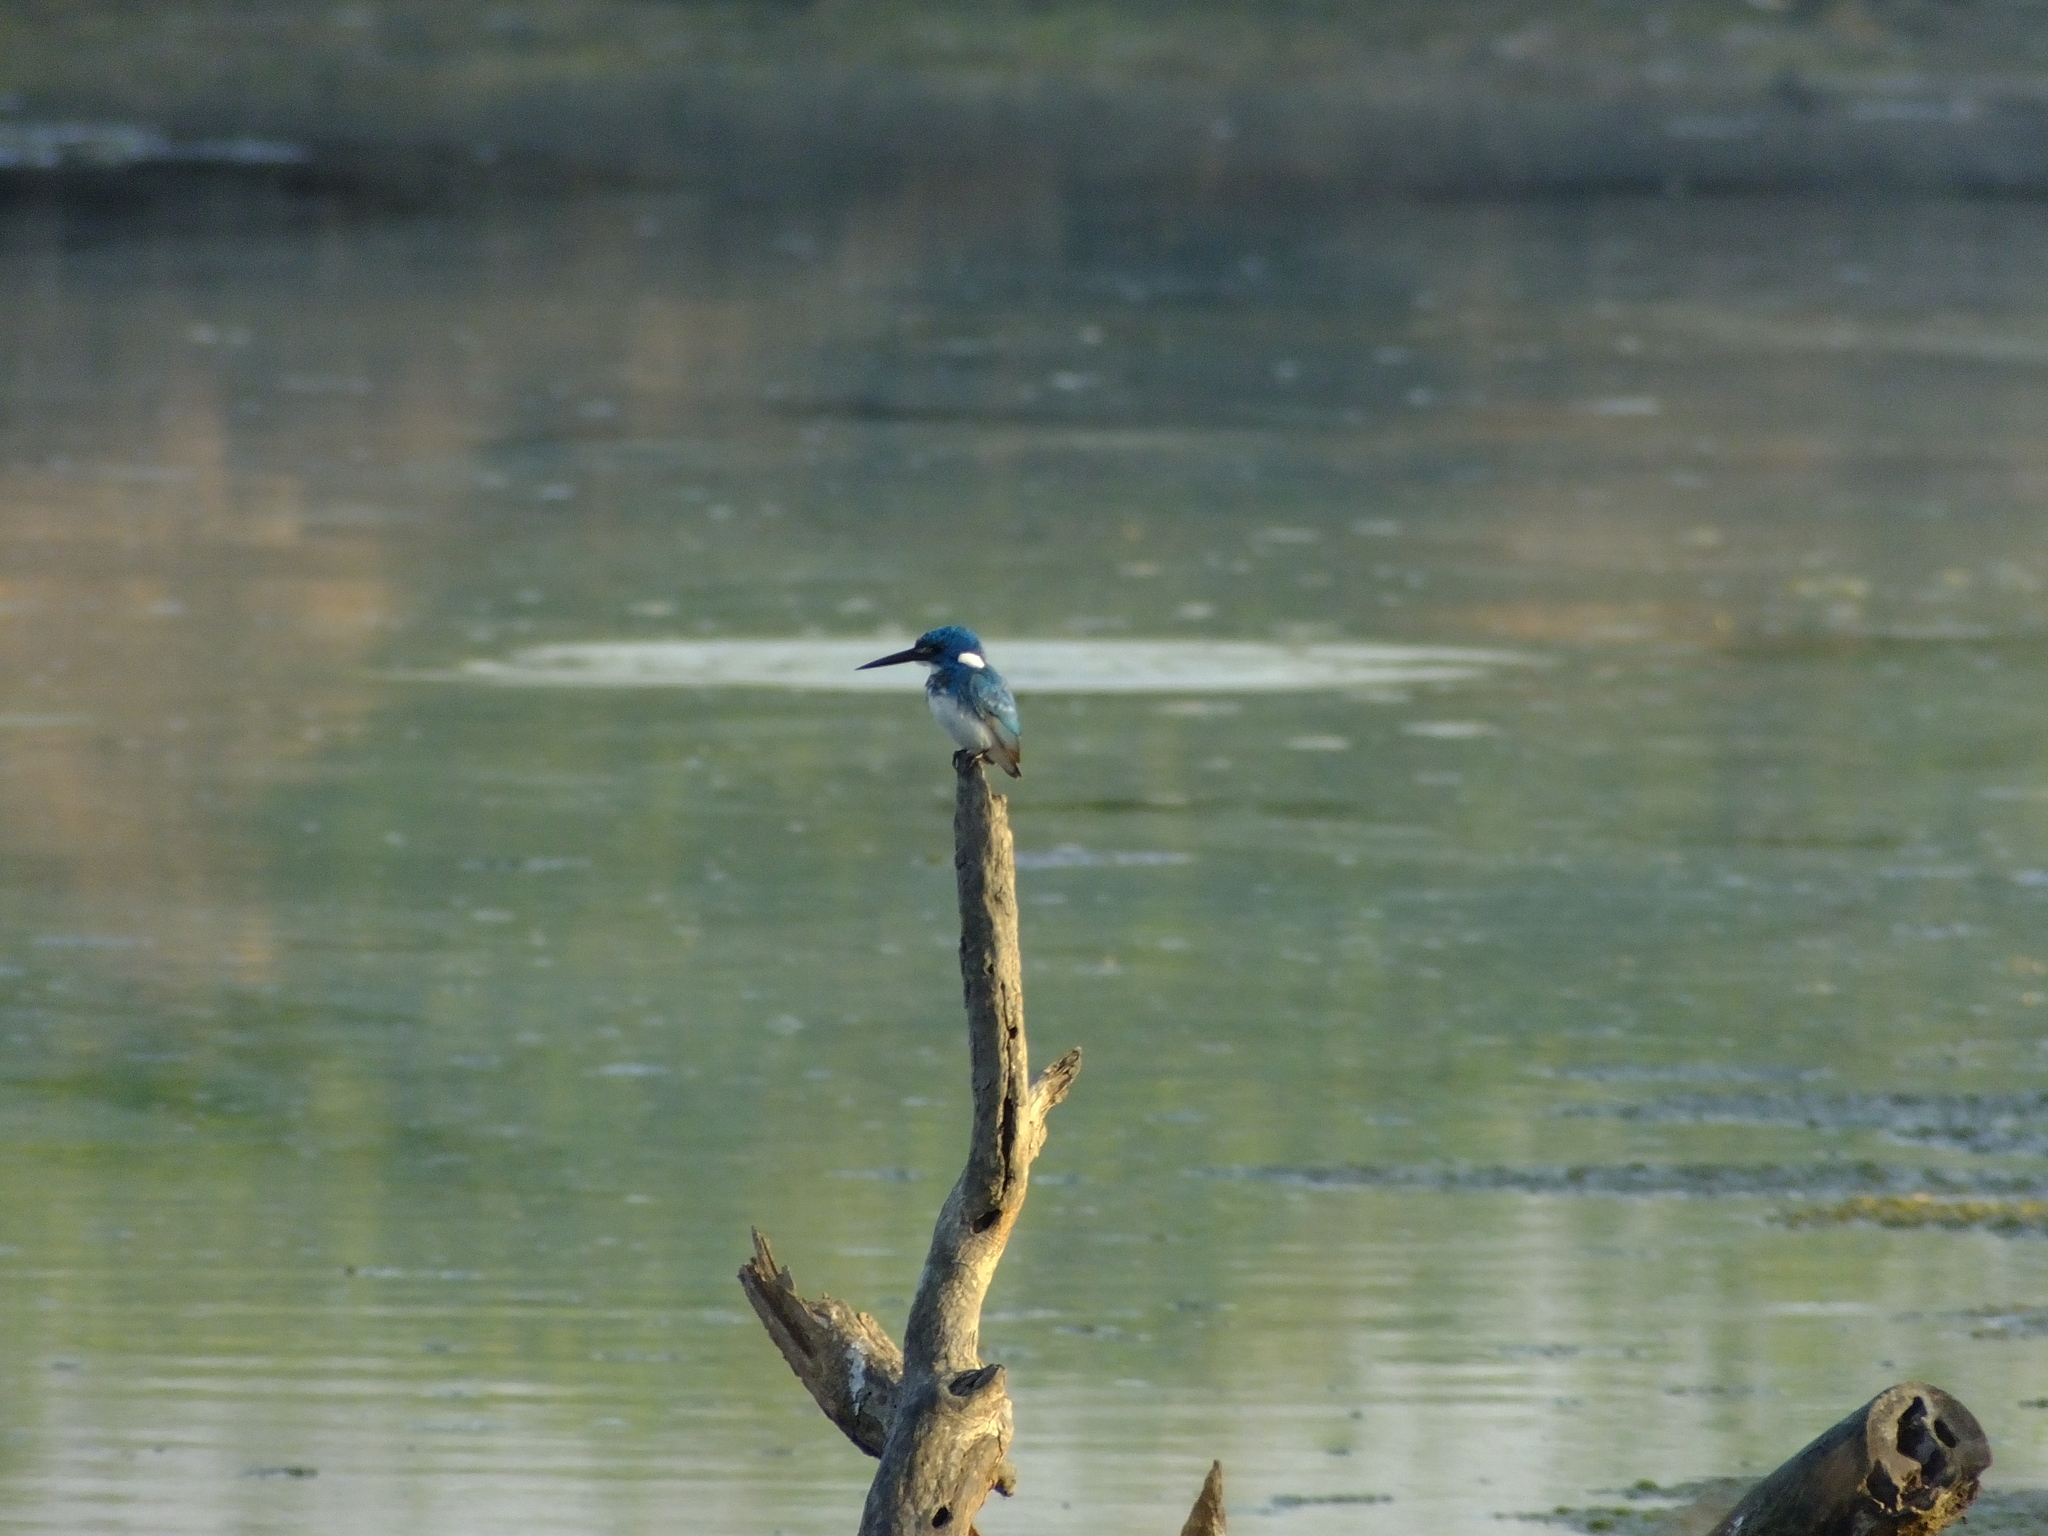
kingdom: Animalia
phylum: Chordata
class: Aves
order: Coraciiformes
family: Alcedinidae
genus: Alcedo
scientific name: Alcedo coerulescens
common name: Cerulean kingfisher
